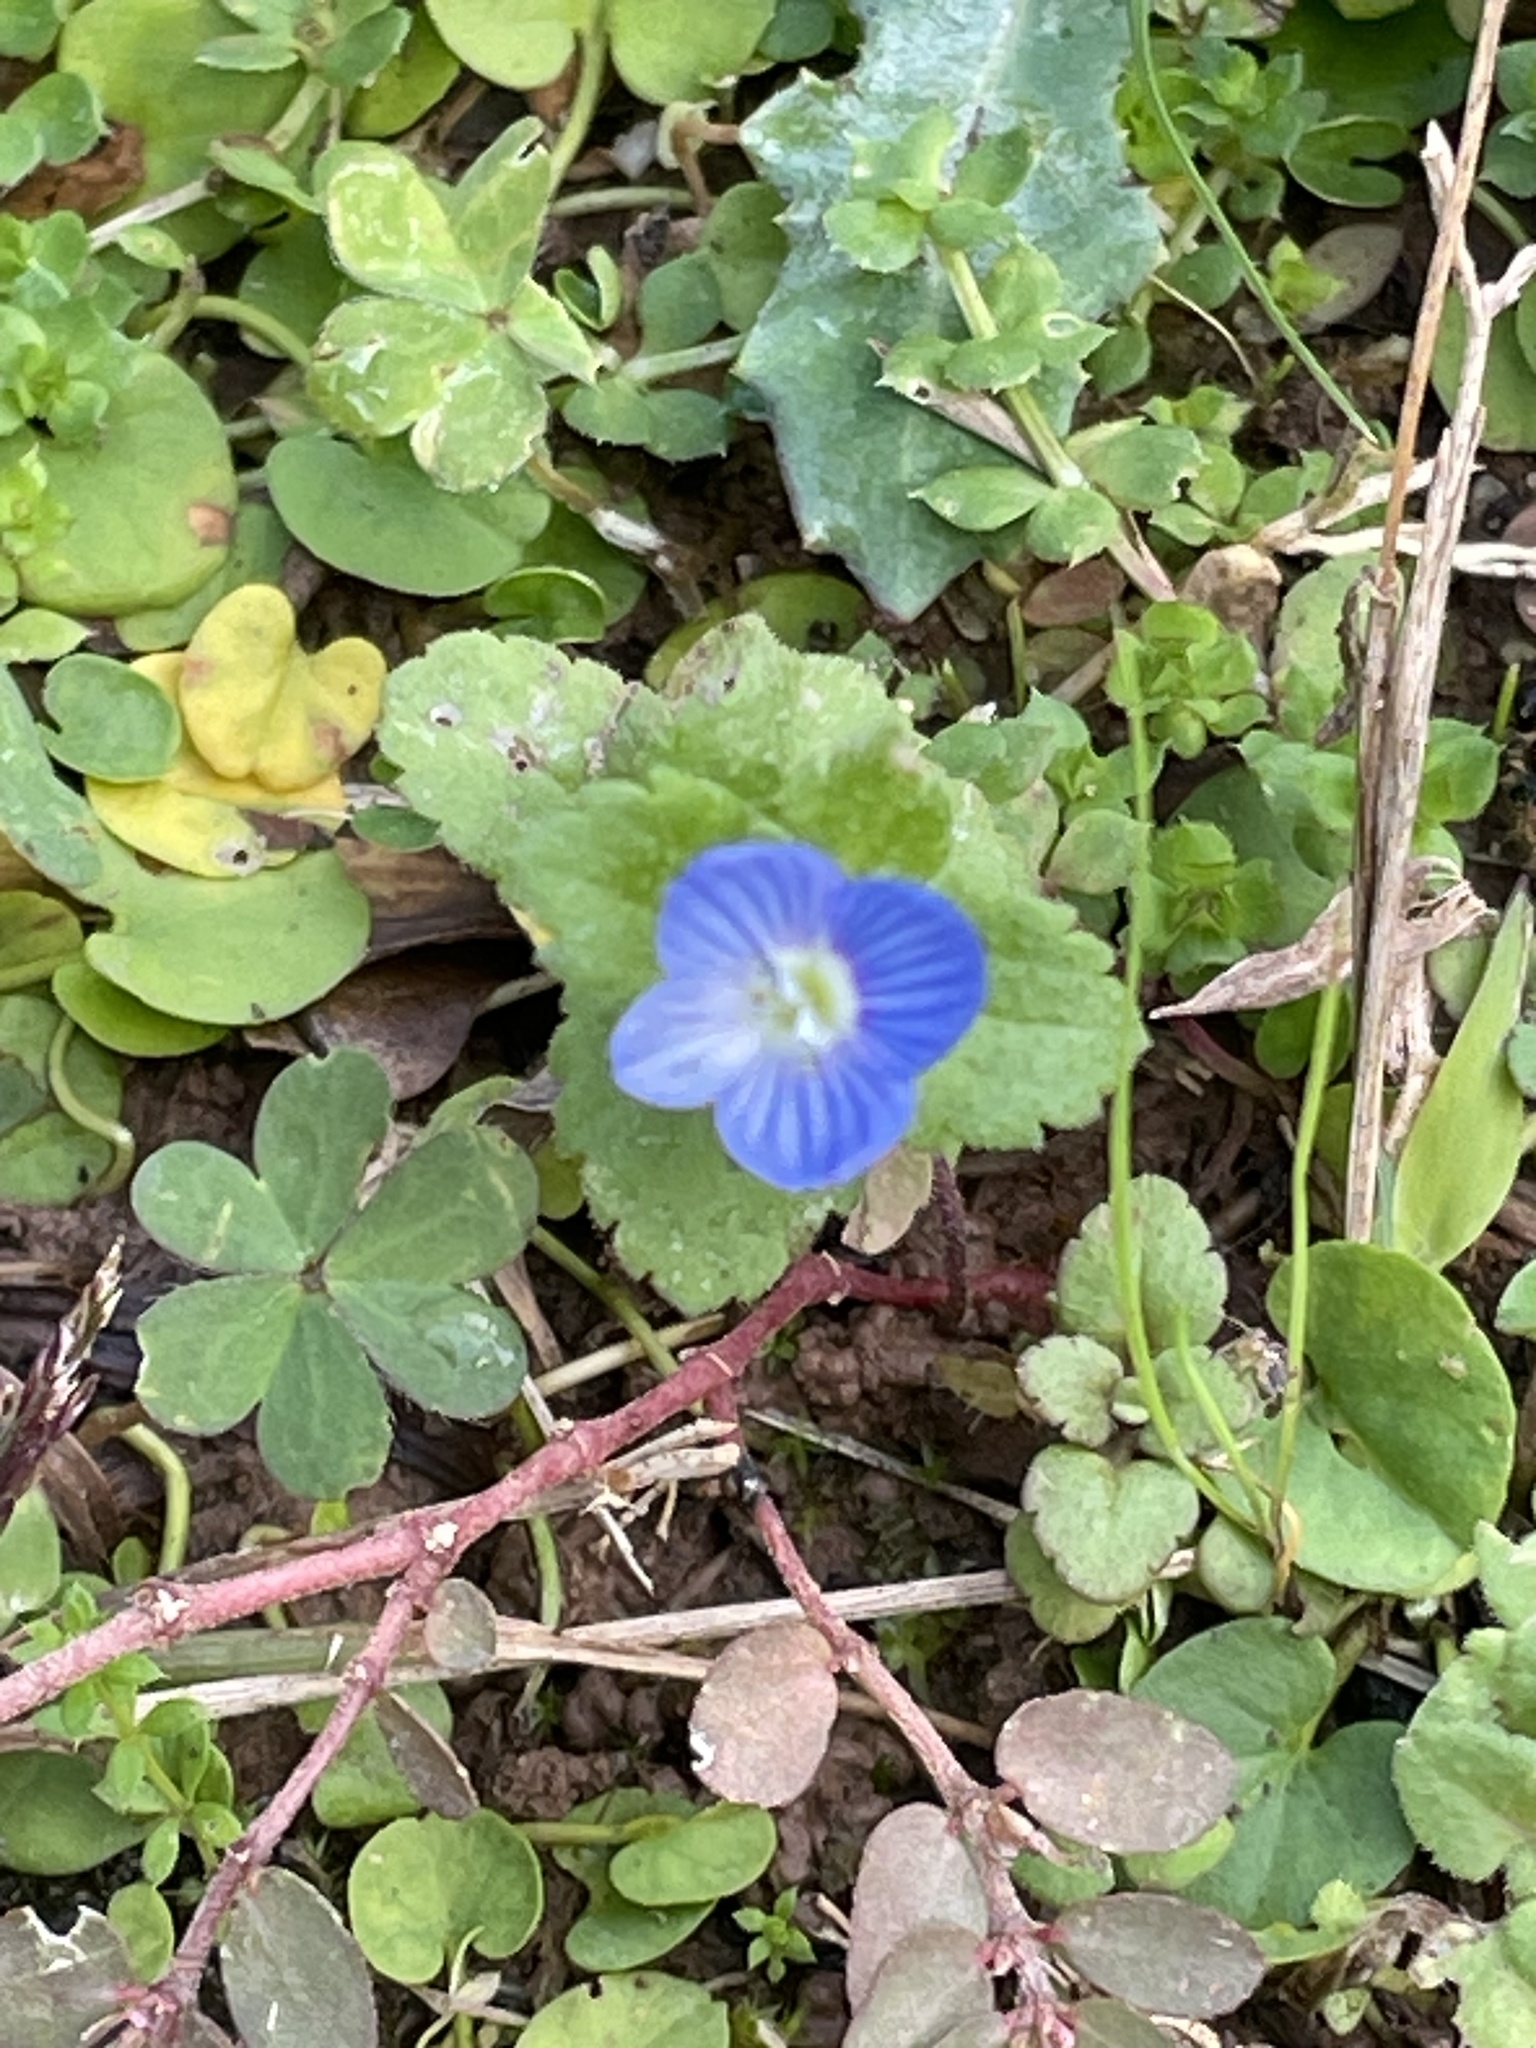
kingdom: Plantae
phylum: Tracheophyta
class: Magnoliopsida
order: Lamiales
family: Plantaginaceae
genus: Veronica
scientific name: Veronica persica
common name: Common field-speedwell
